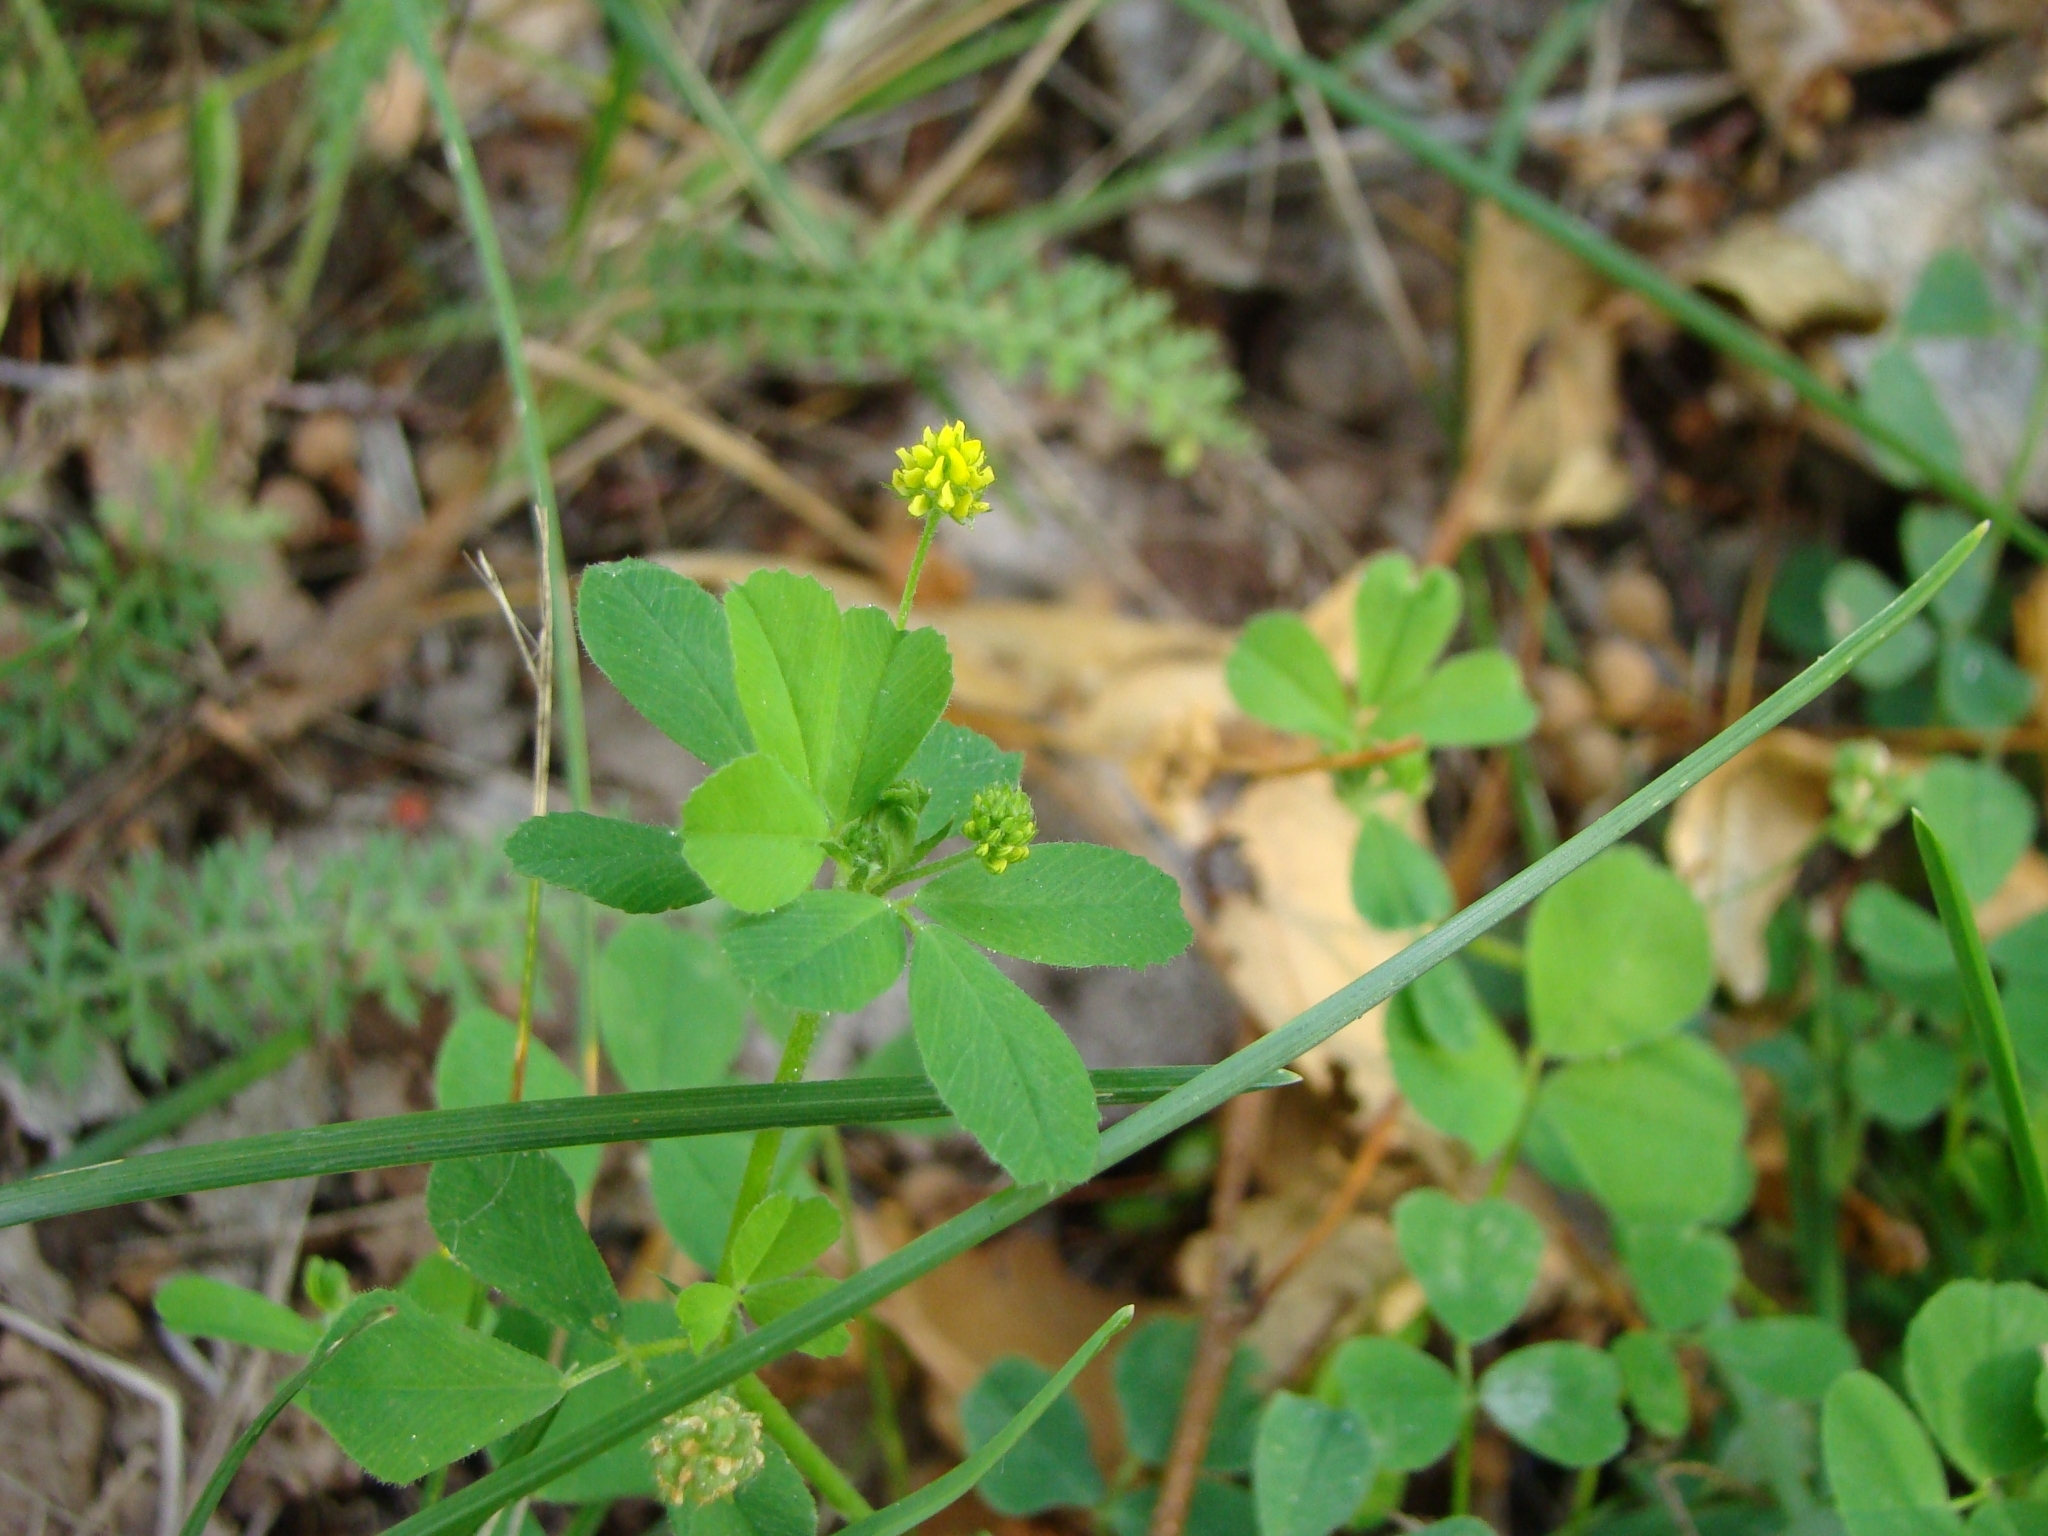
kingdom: Plantae
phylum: Tracheophyta
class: Magnoliopsida
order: Fabales
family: Fabaceae
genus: Medicago
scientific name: Medicago lupulina
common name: Black medick
